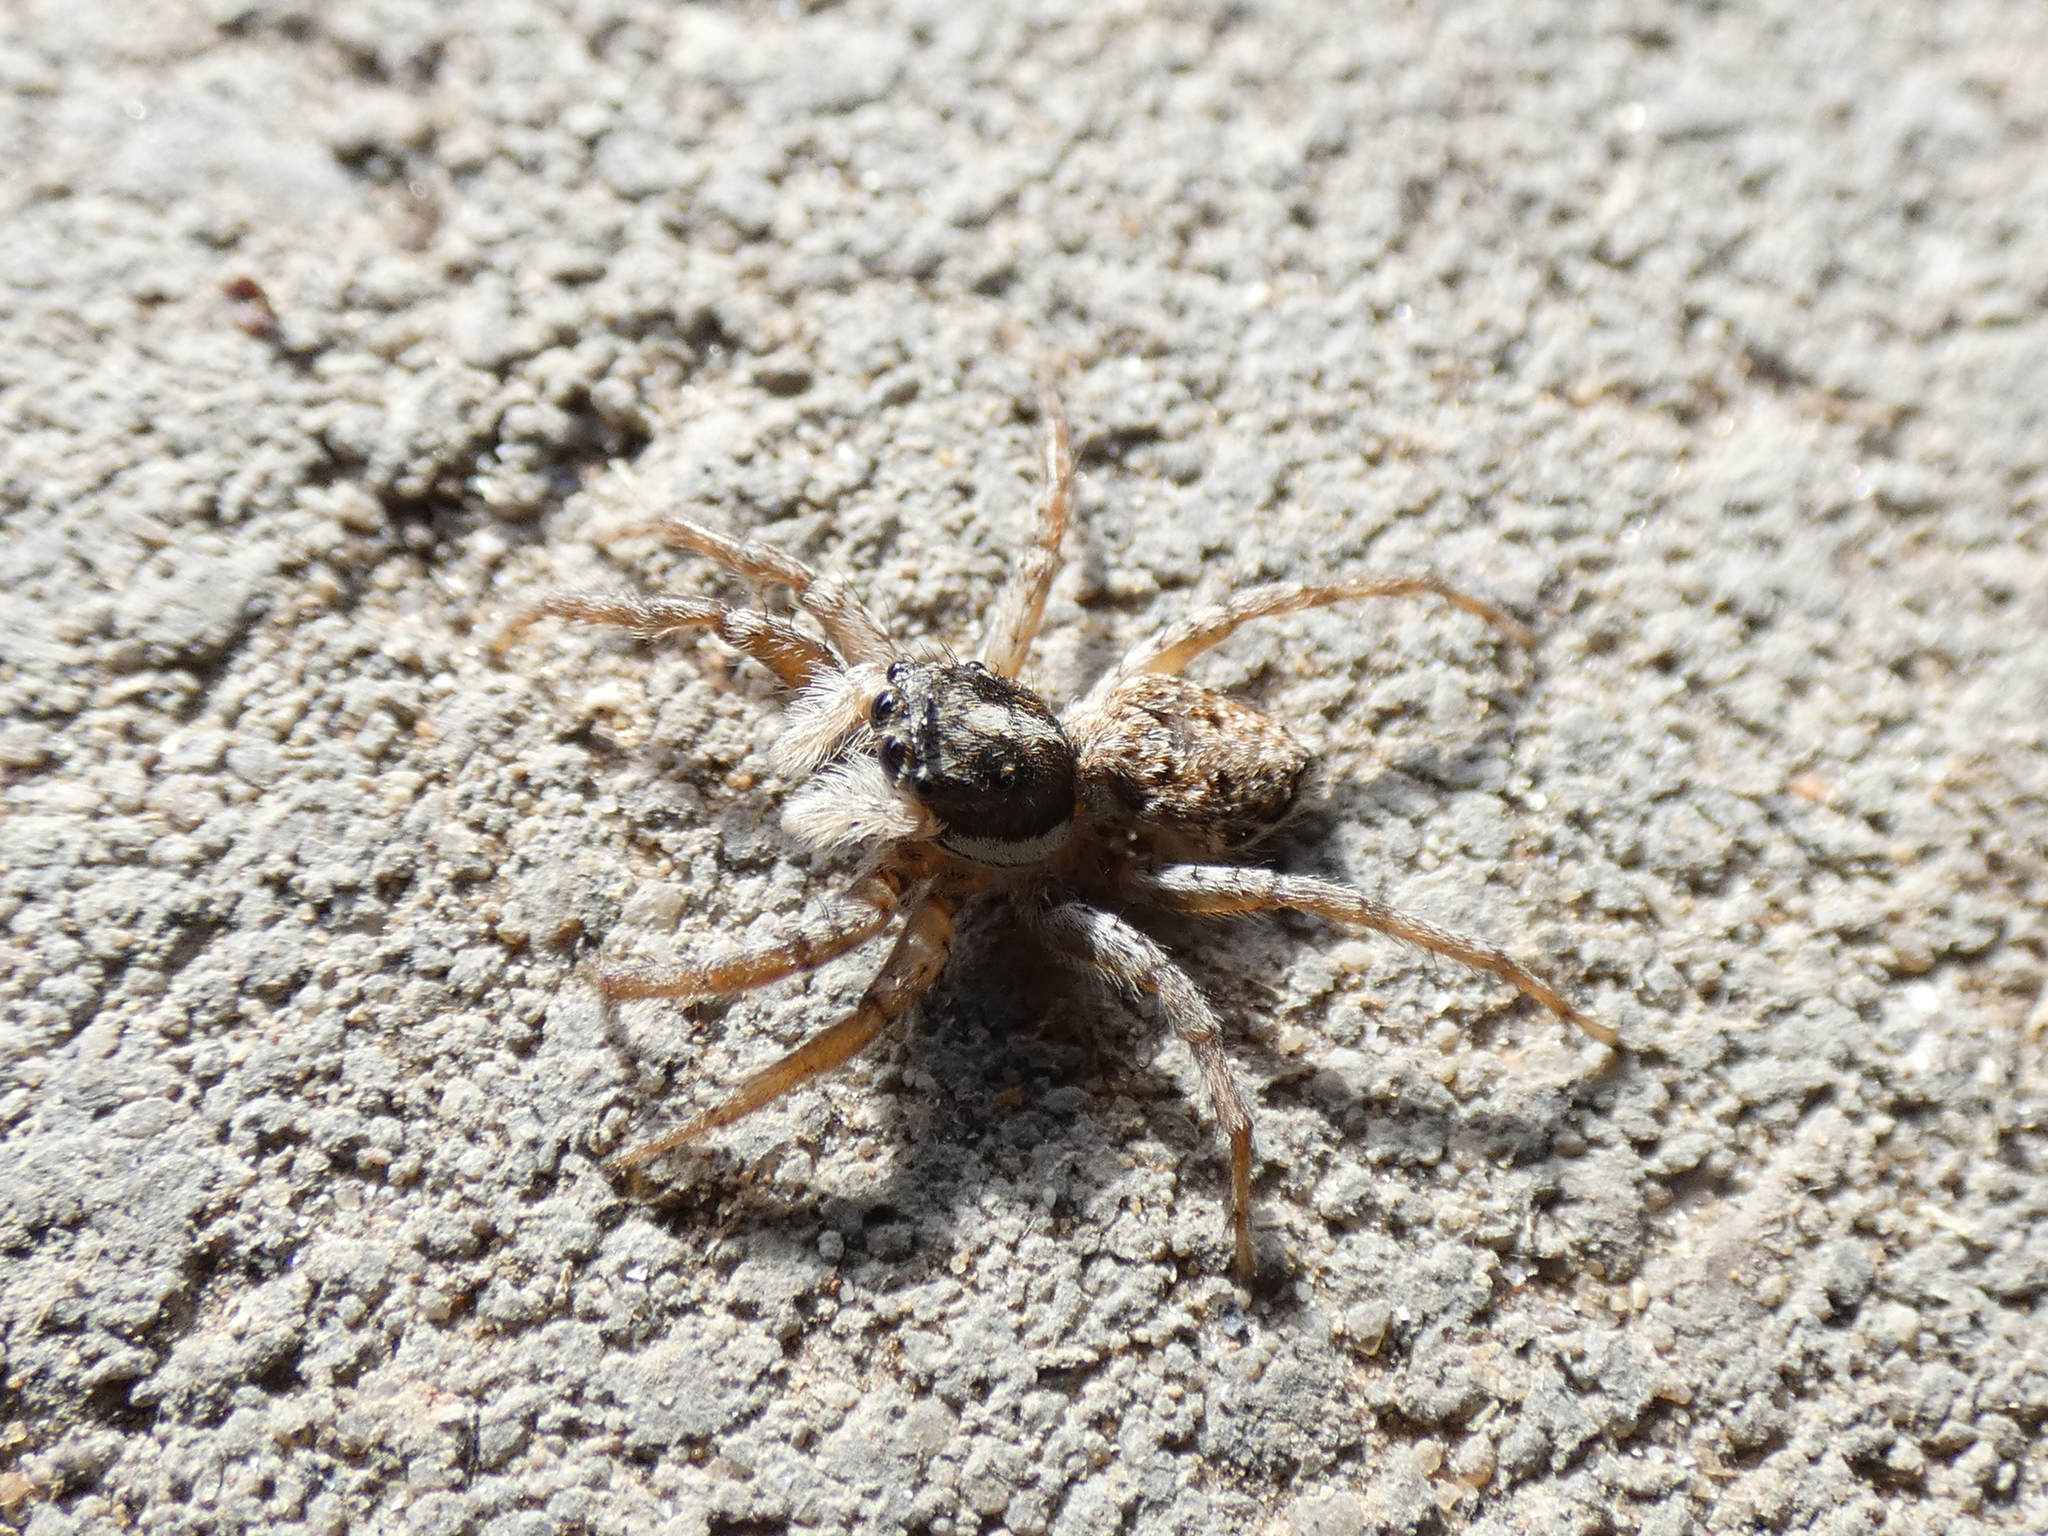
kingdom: Animalia
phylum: Arthropoda
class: Arachnida
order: Araneae
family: Salticidae
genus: Menemerus
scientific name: Menemerus semilimbatus
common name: Jumping spider
